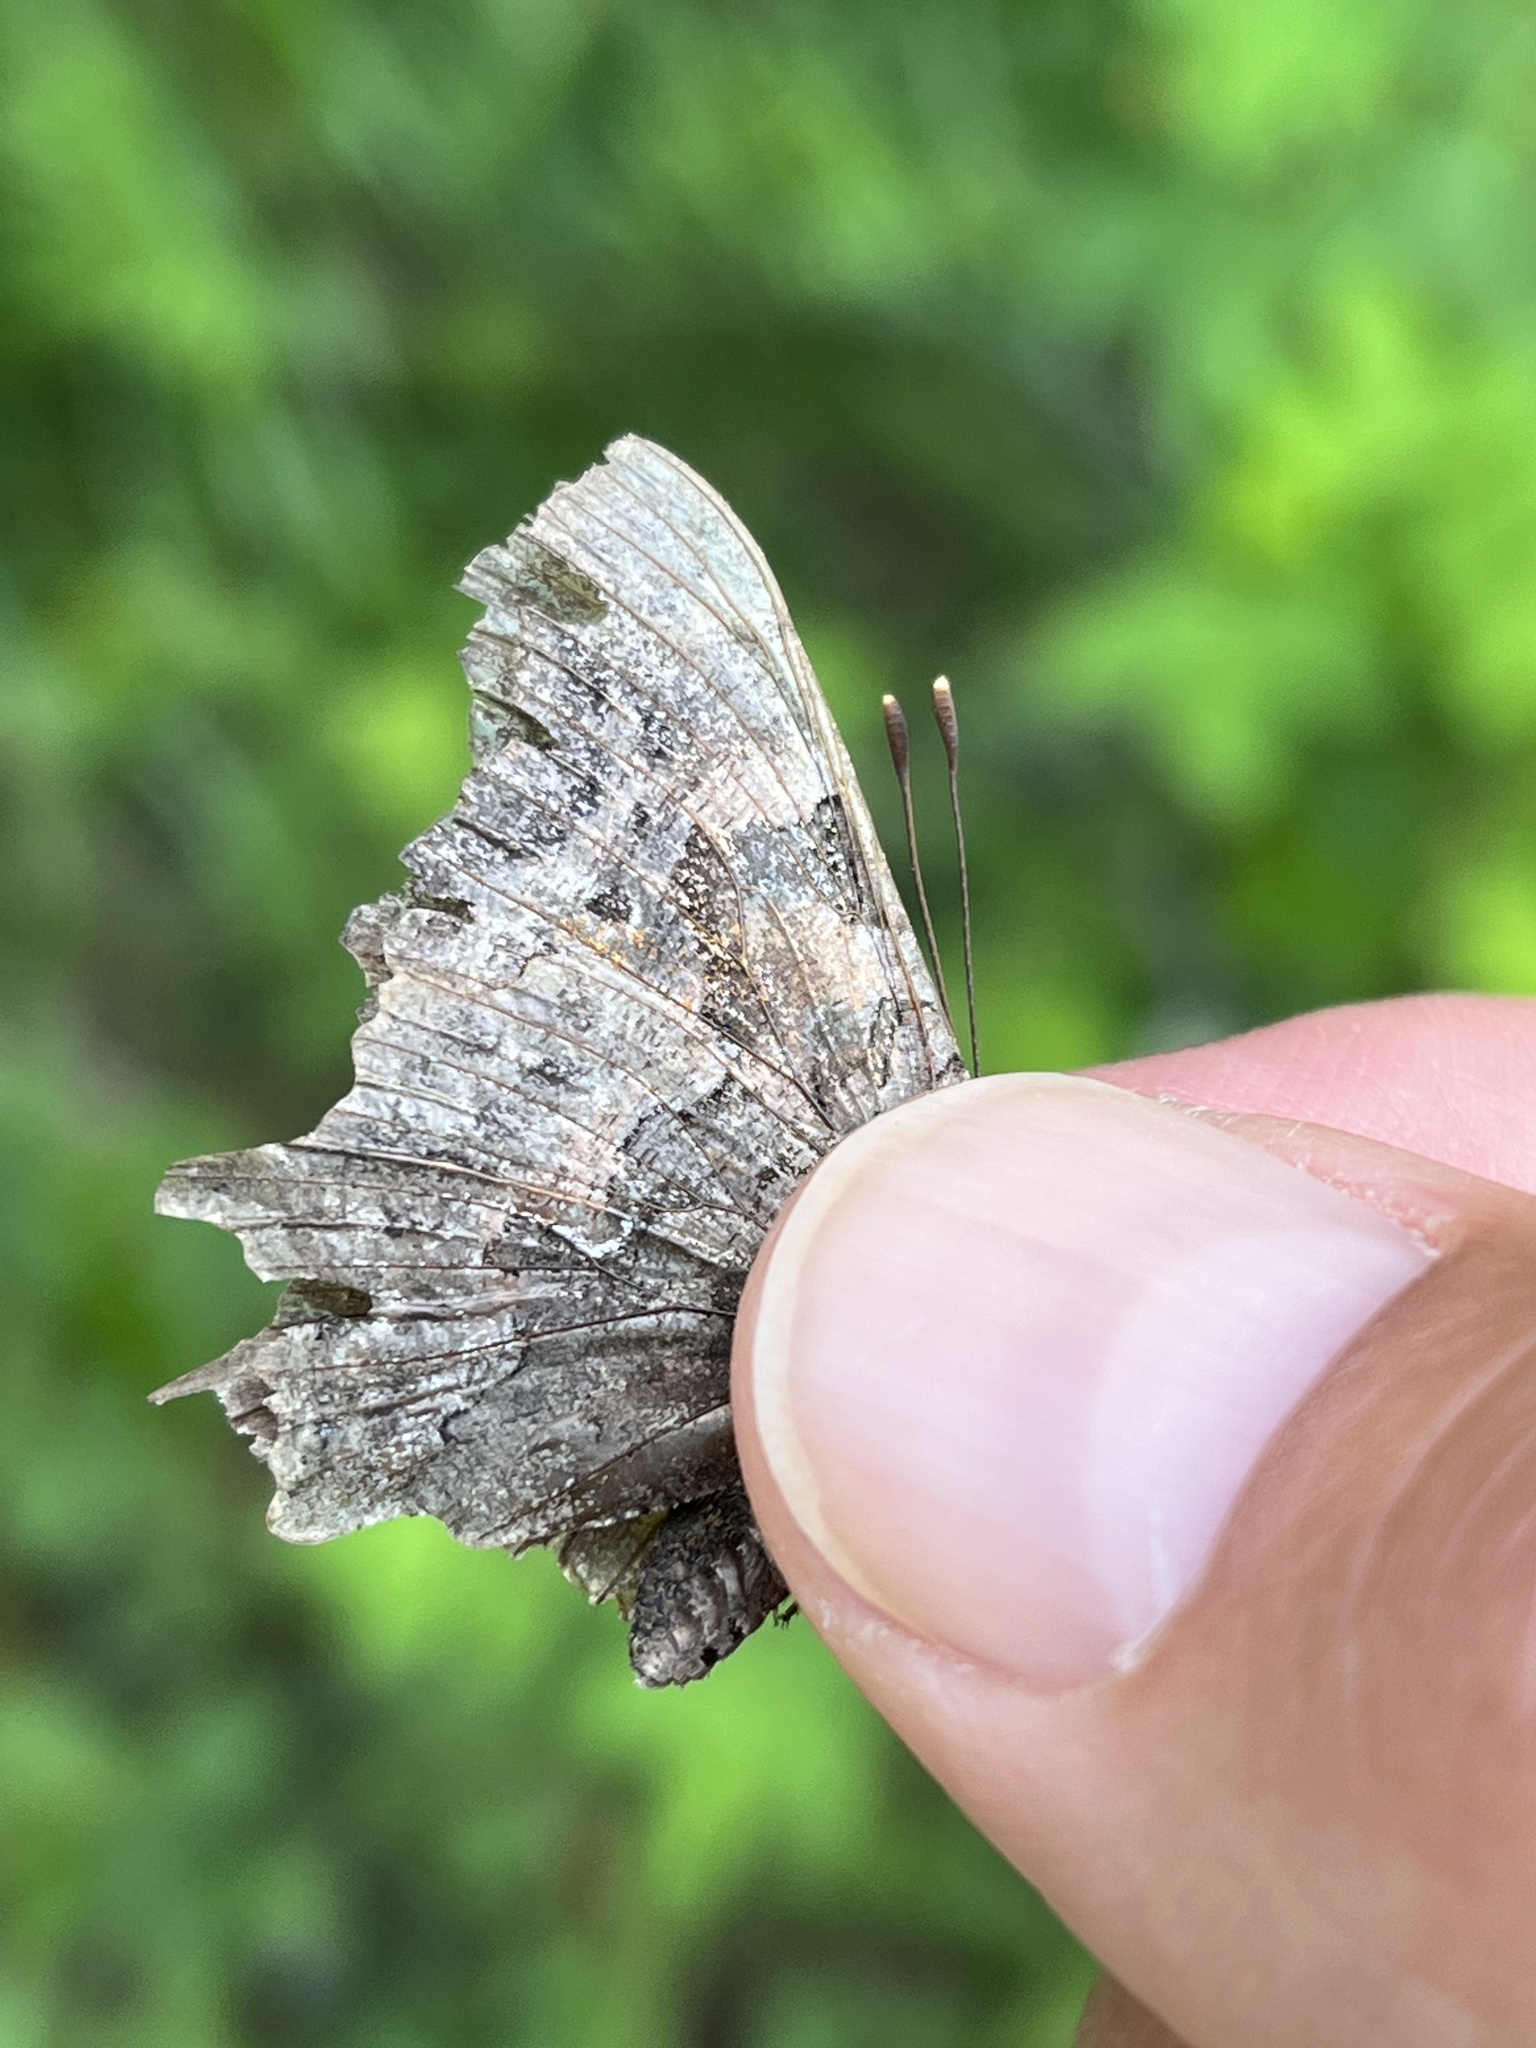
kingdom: Animalia
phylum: Arthropoda
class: Insecta
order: Lepidoptera
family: Nymphalidae
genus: Polygonia
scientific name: Polygonia faunus
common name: Green comma
